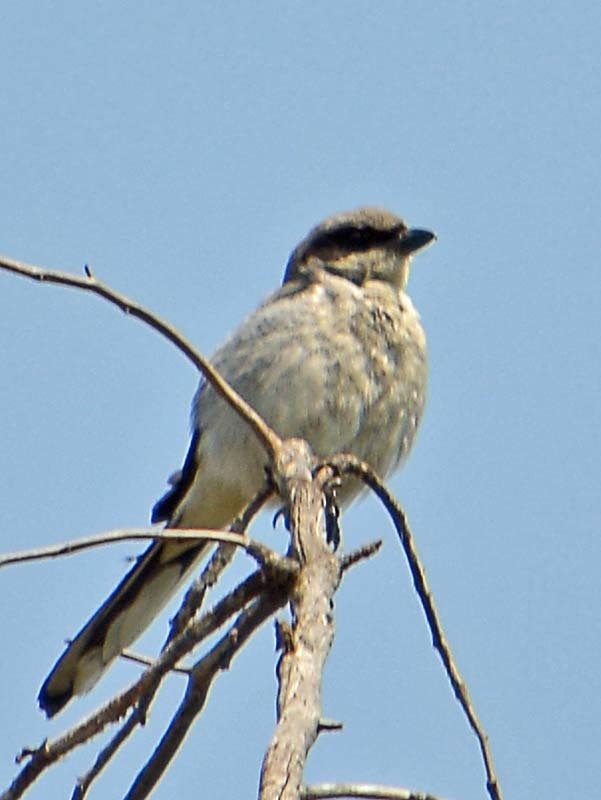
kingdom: Animalia
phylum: Chordata
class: Aves
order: Passeriformes
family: Laniidae
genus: Lanius
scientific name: Lanius ludovicianus
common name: Loggerhead shrike
